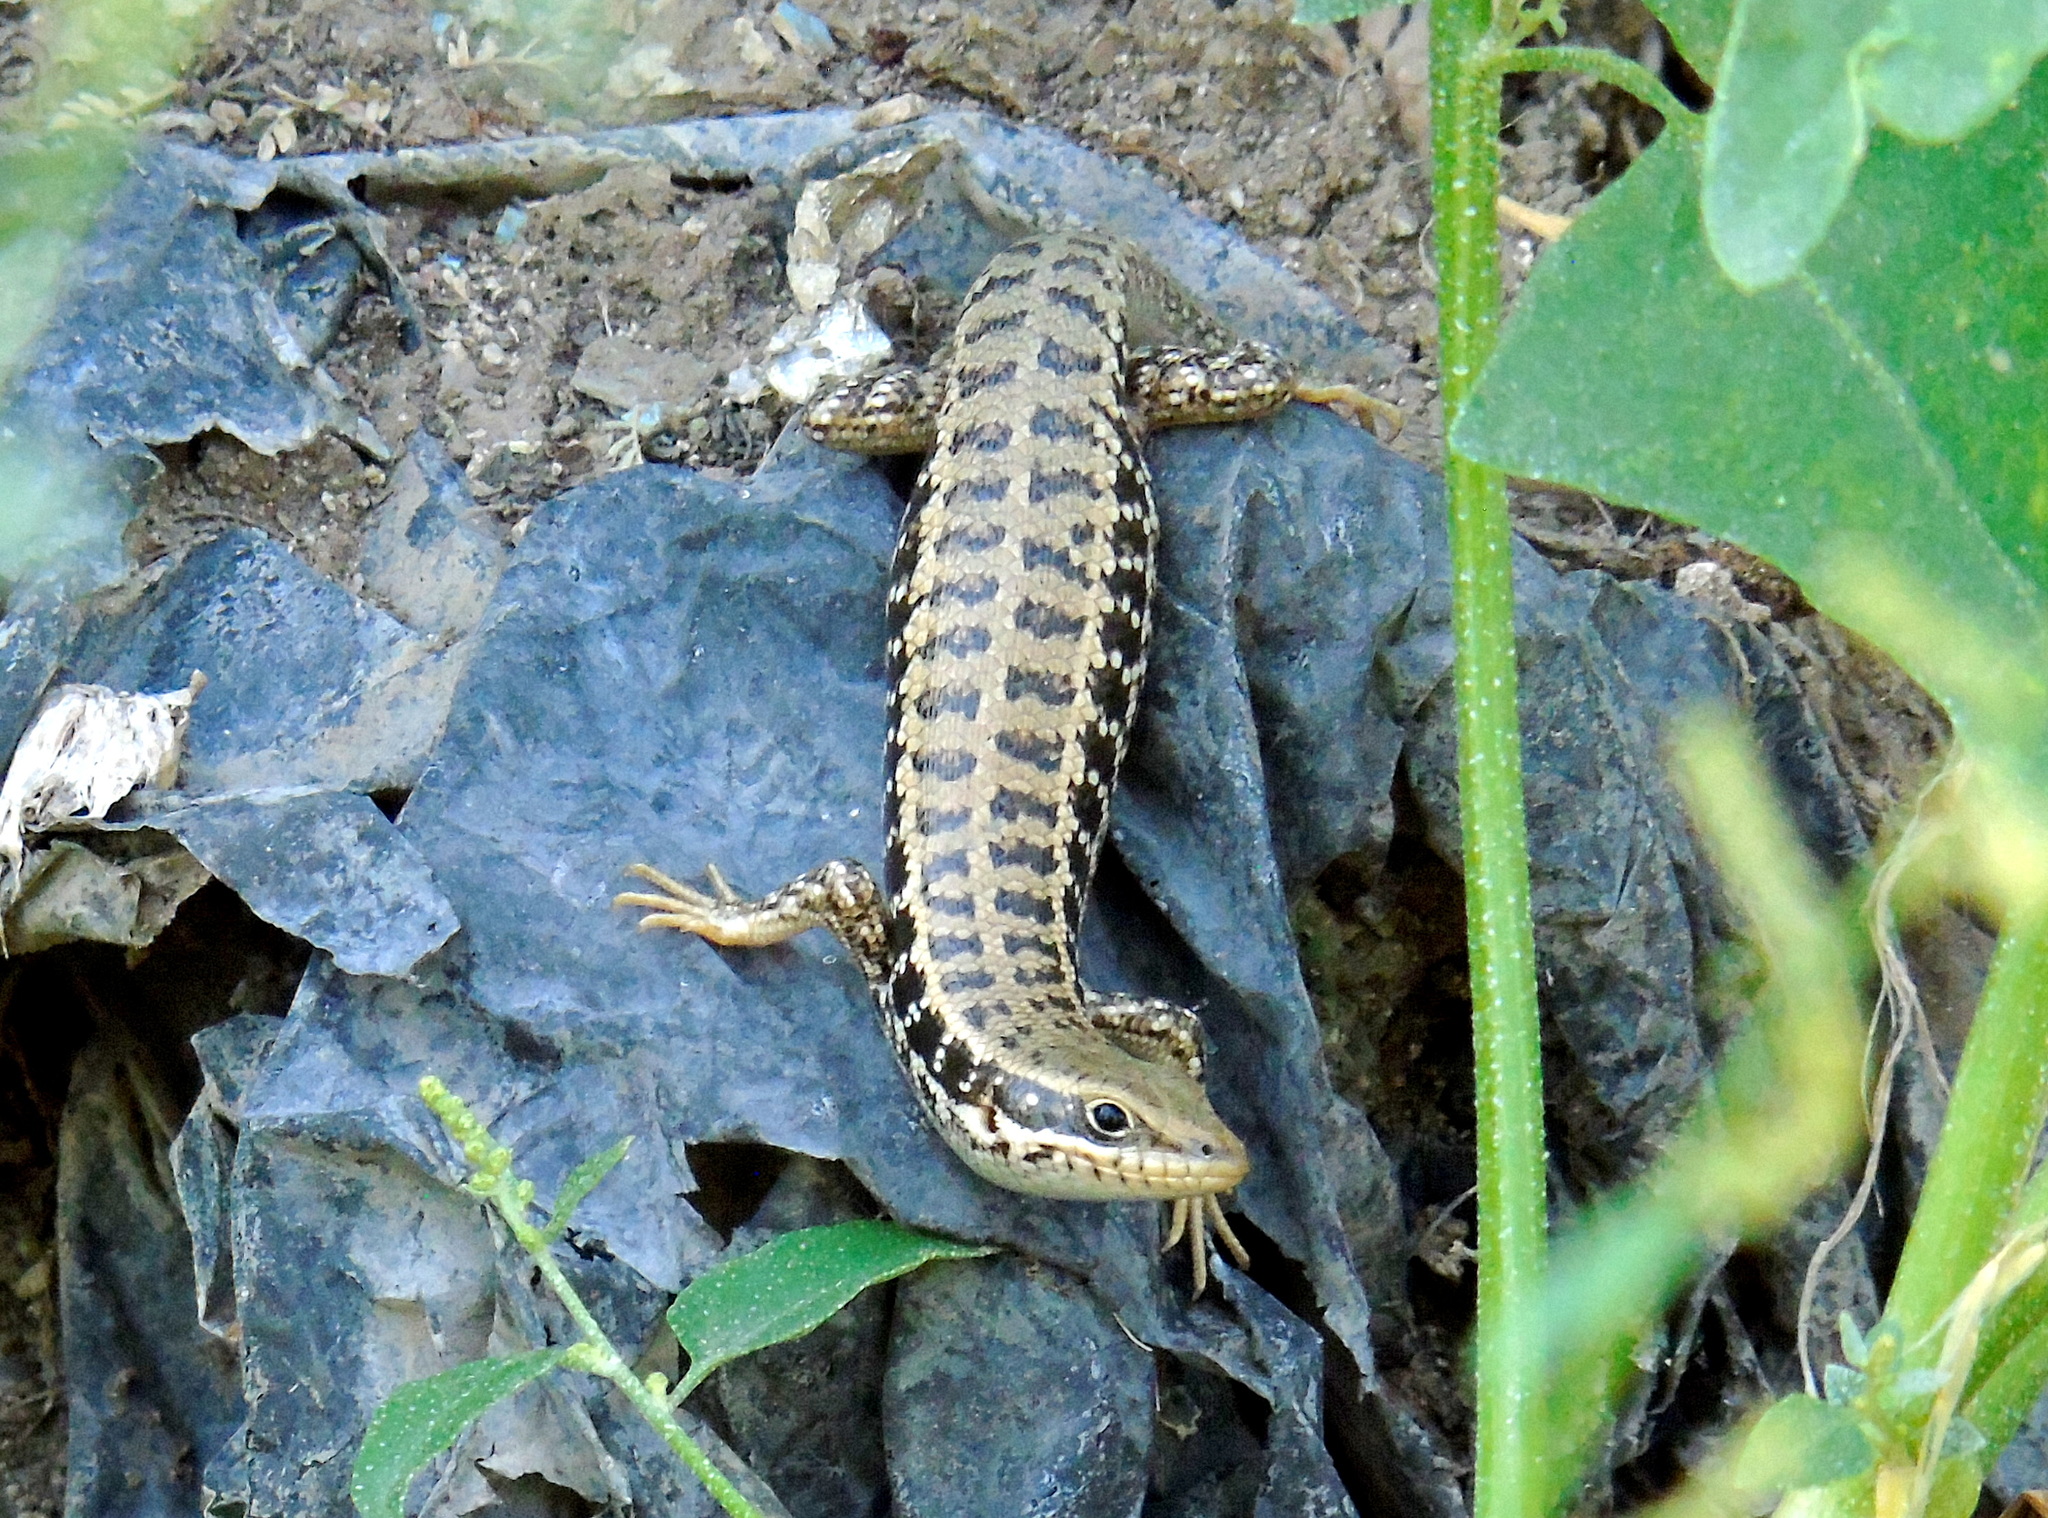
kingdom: Animalia
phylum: Chordata
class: Squamata
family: Scincidae
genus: Heremites
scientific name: Heremites auratus
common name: Golden grass mabuya
